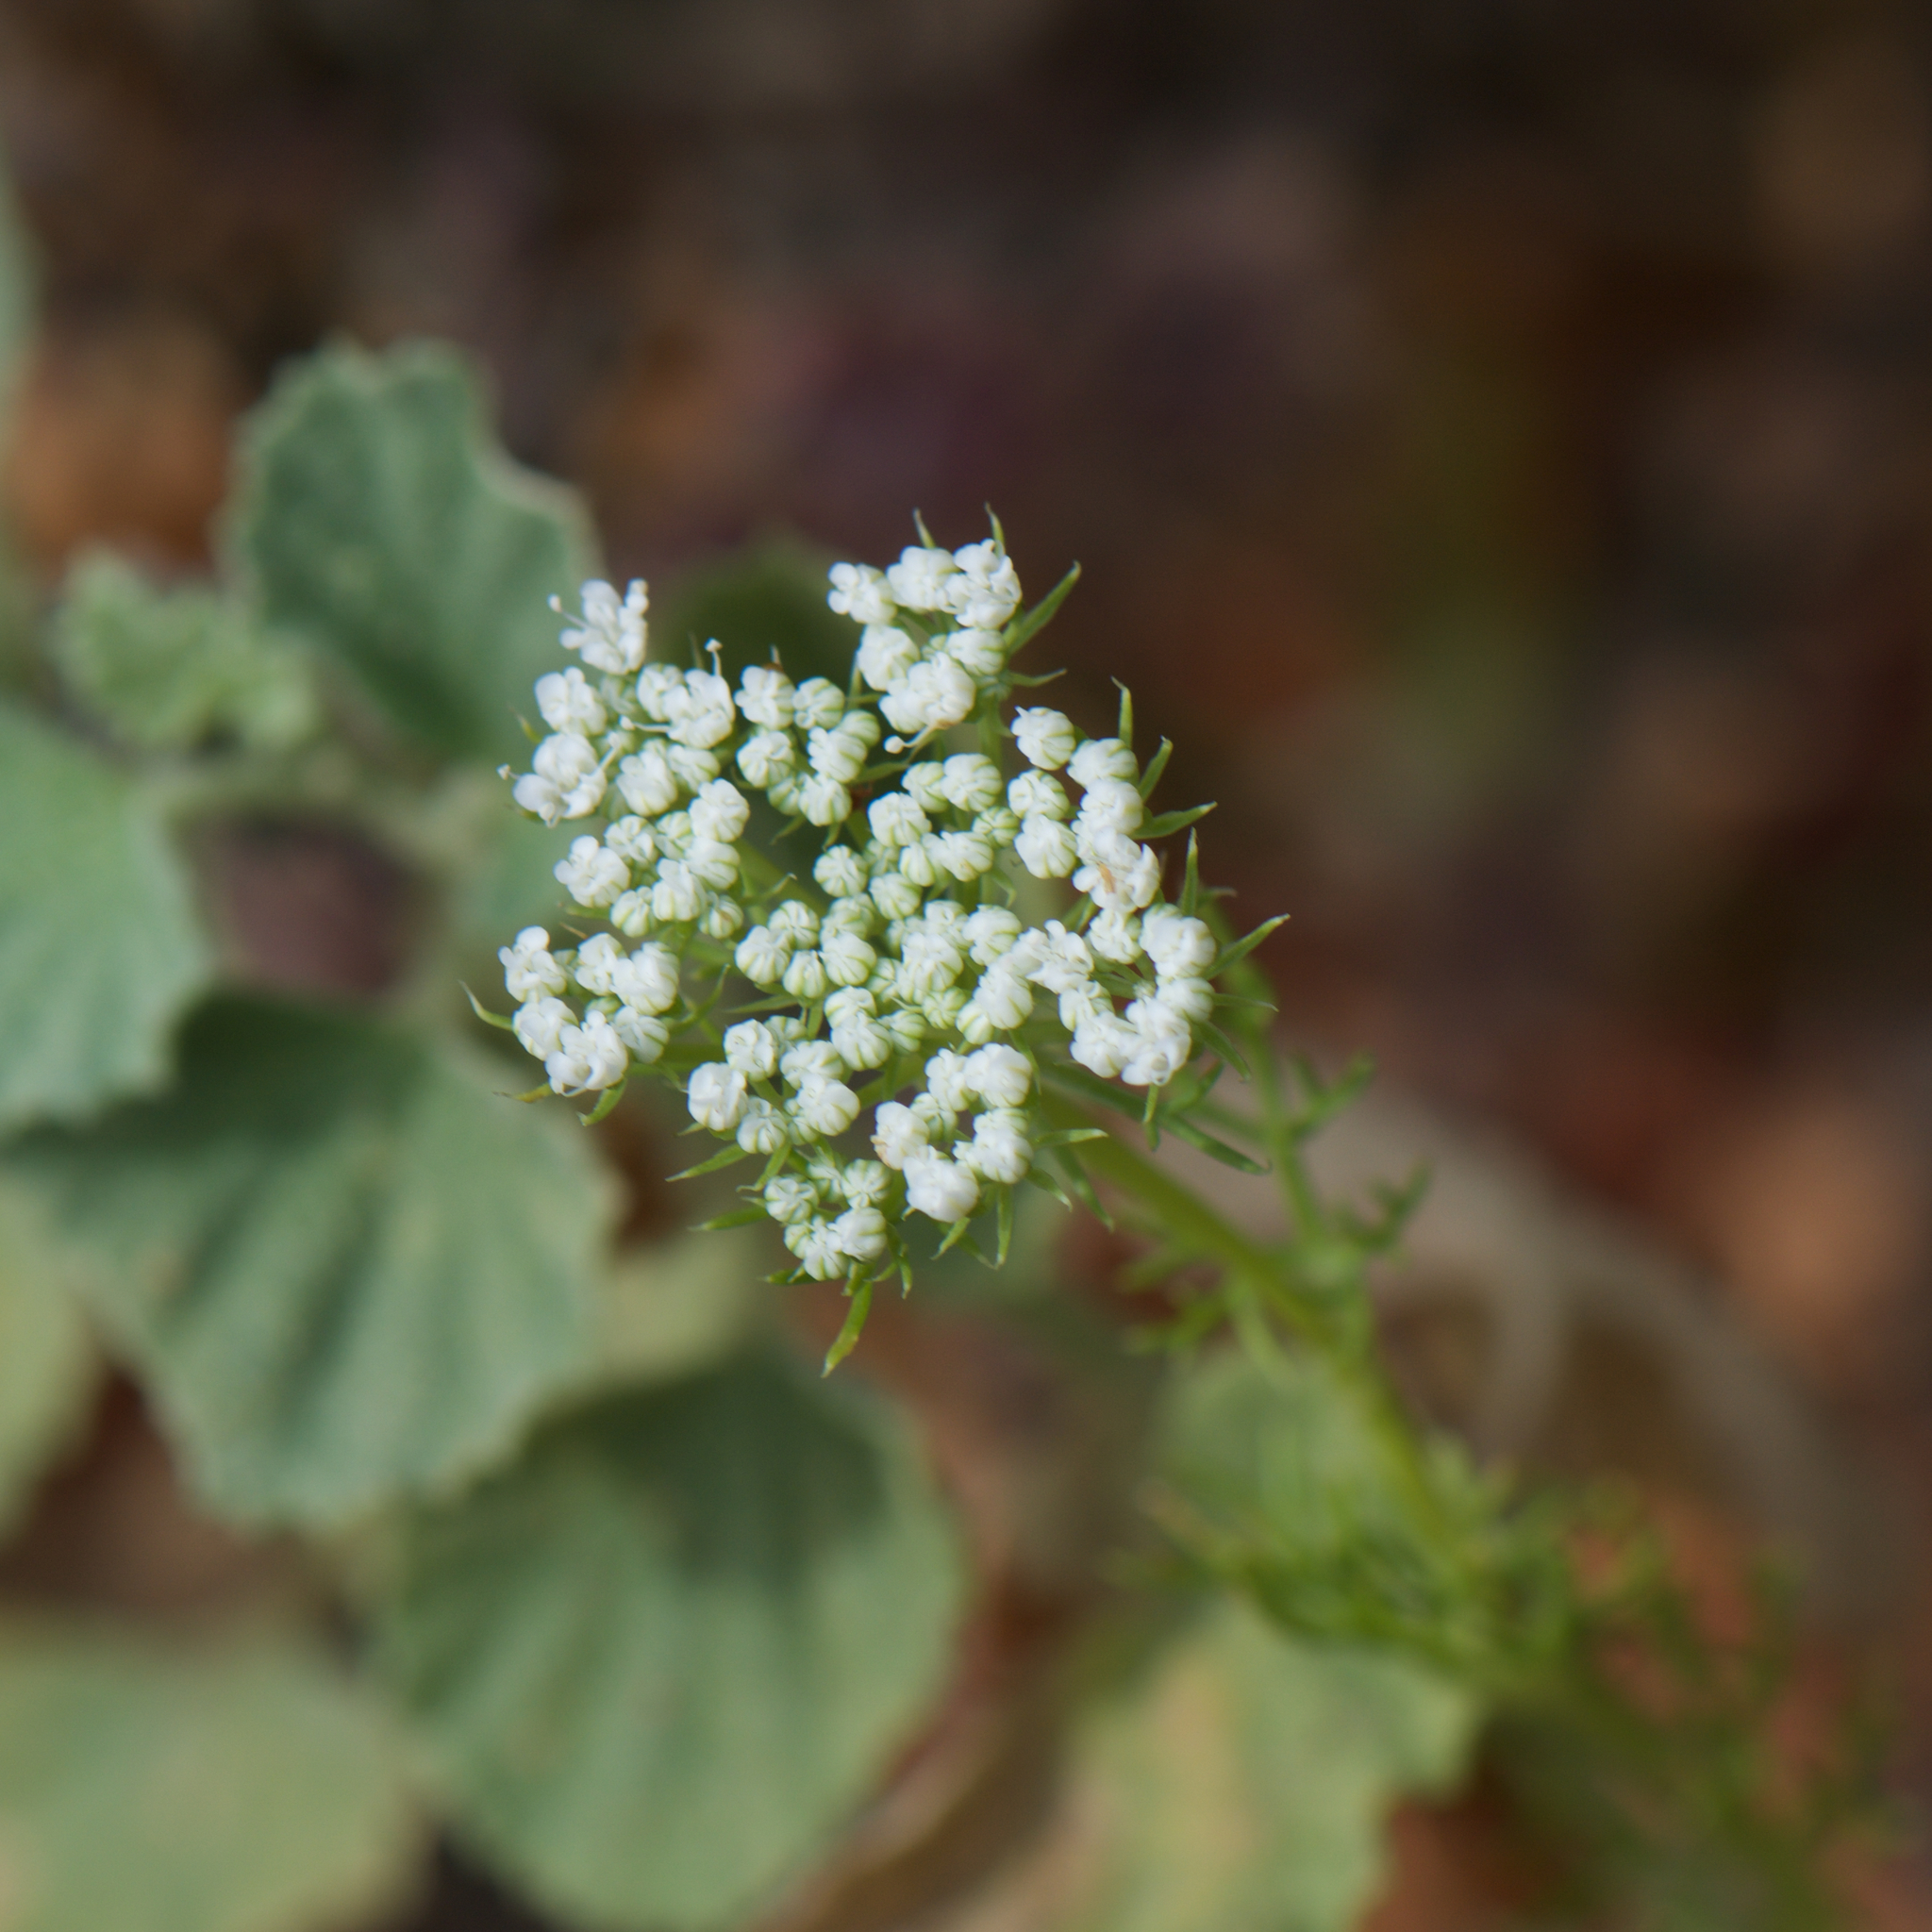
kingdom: Plantae
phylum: Tracheophyta
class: Magnoliopsida
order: Apiales
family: Apiaceae
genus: Daucus
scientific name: Daucus carota
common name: Wild carrot
